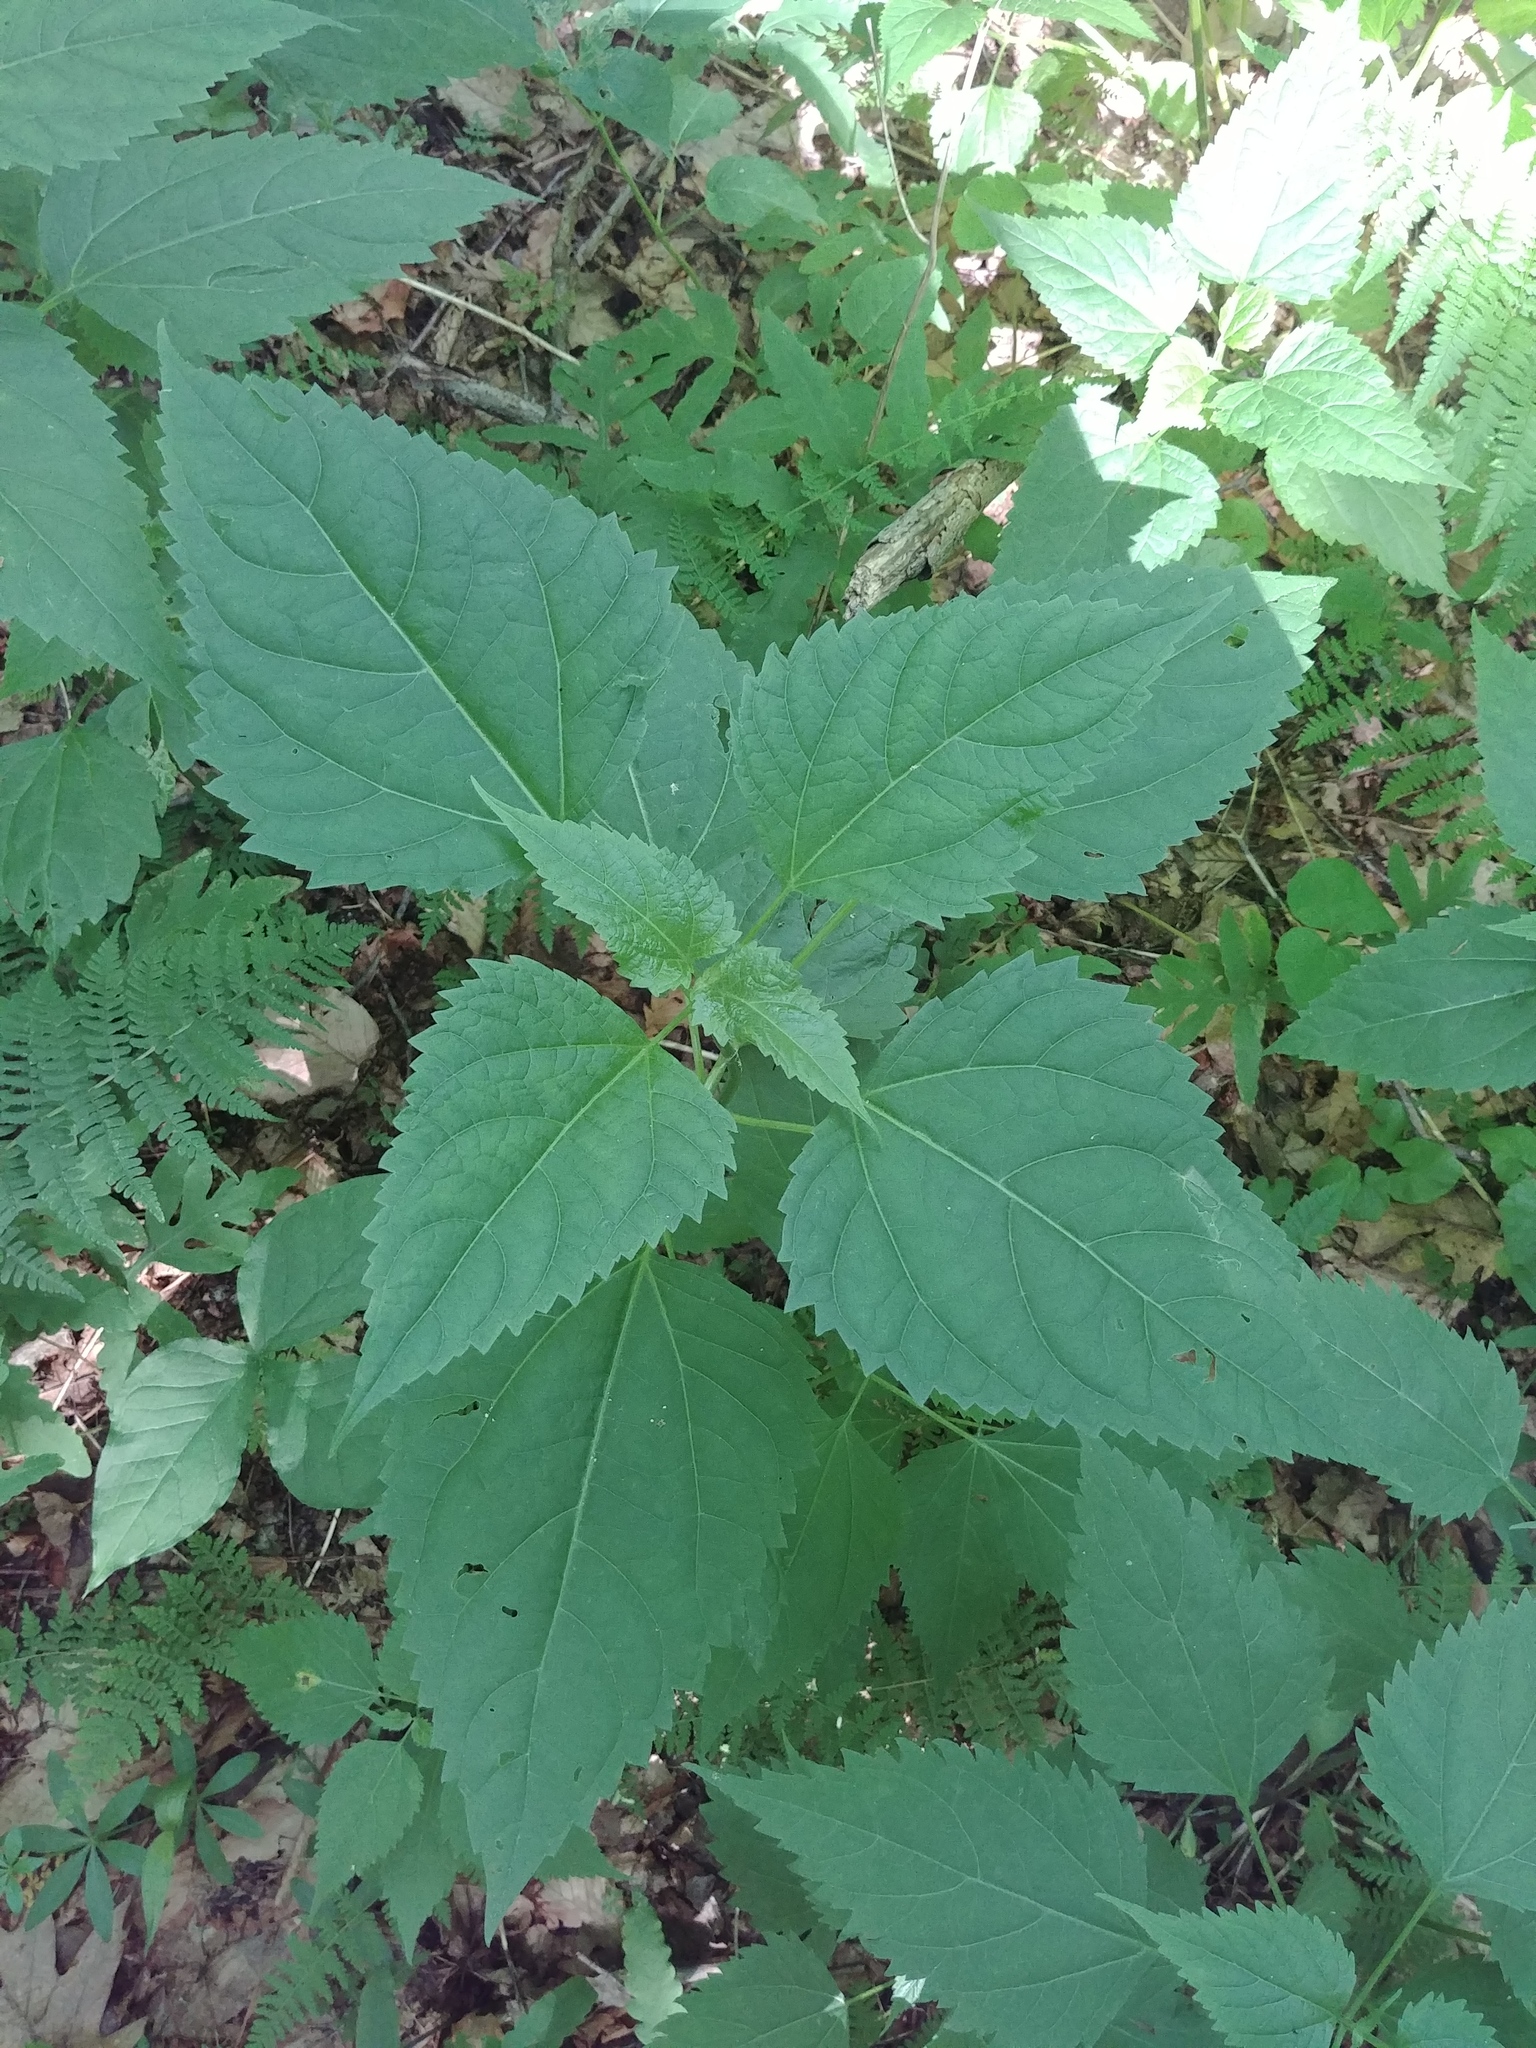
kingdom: Plantae
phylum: Tracheophyta
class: Magnoliopsida
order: Asterales
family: Asteraceae
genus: Ageratina
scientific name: Ageratina altissima
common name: White snakeroot
